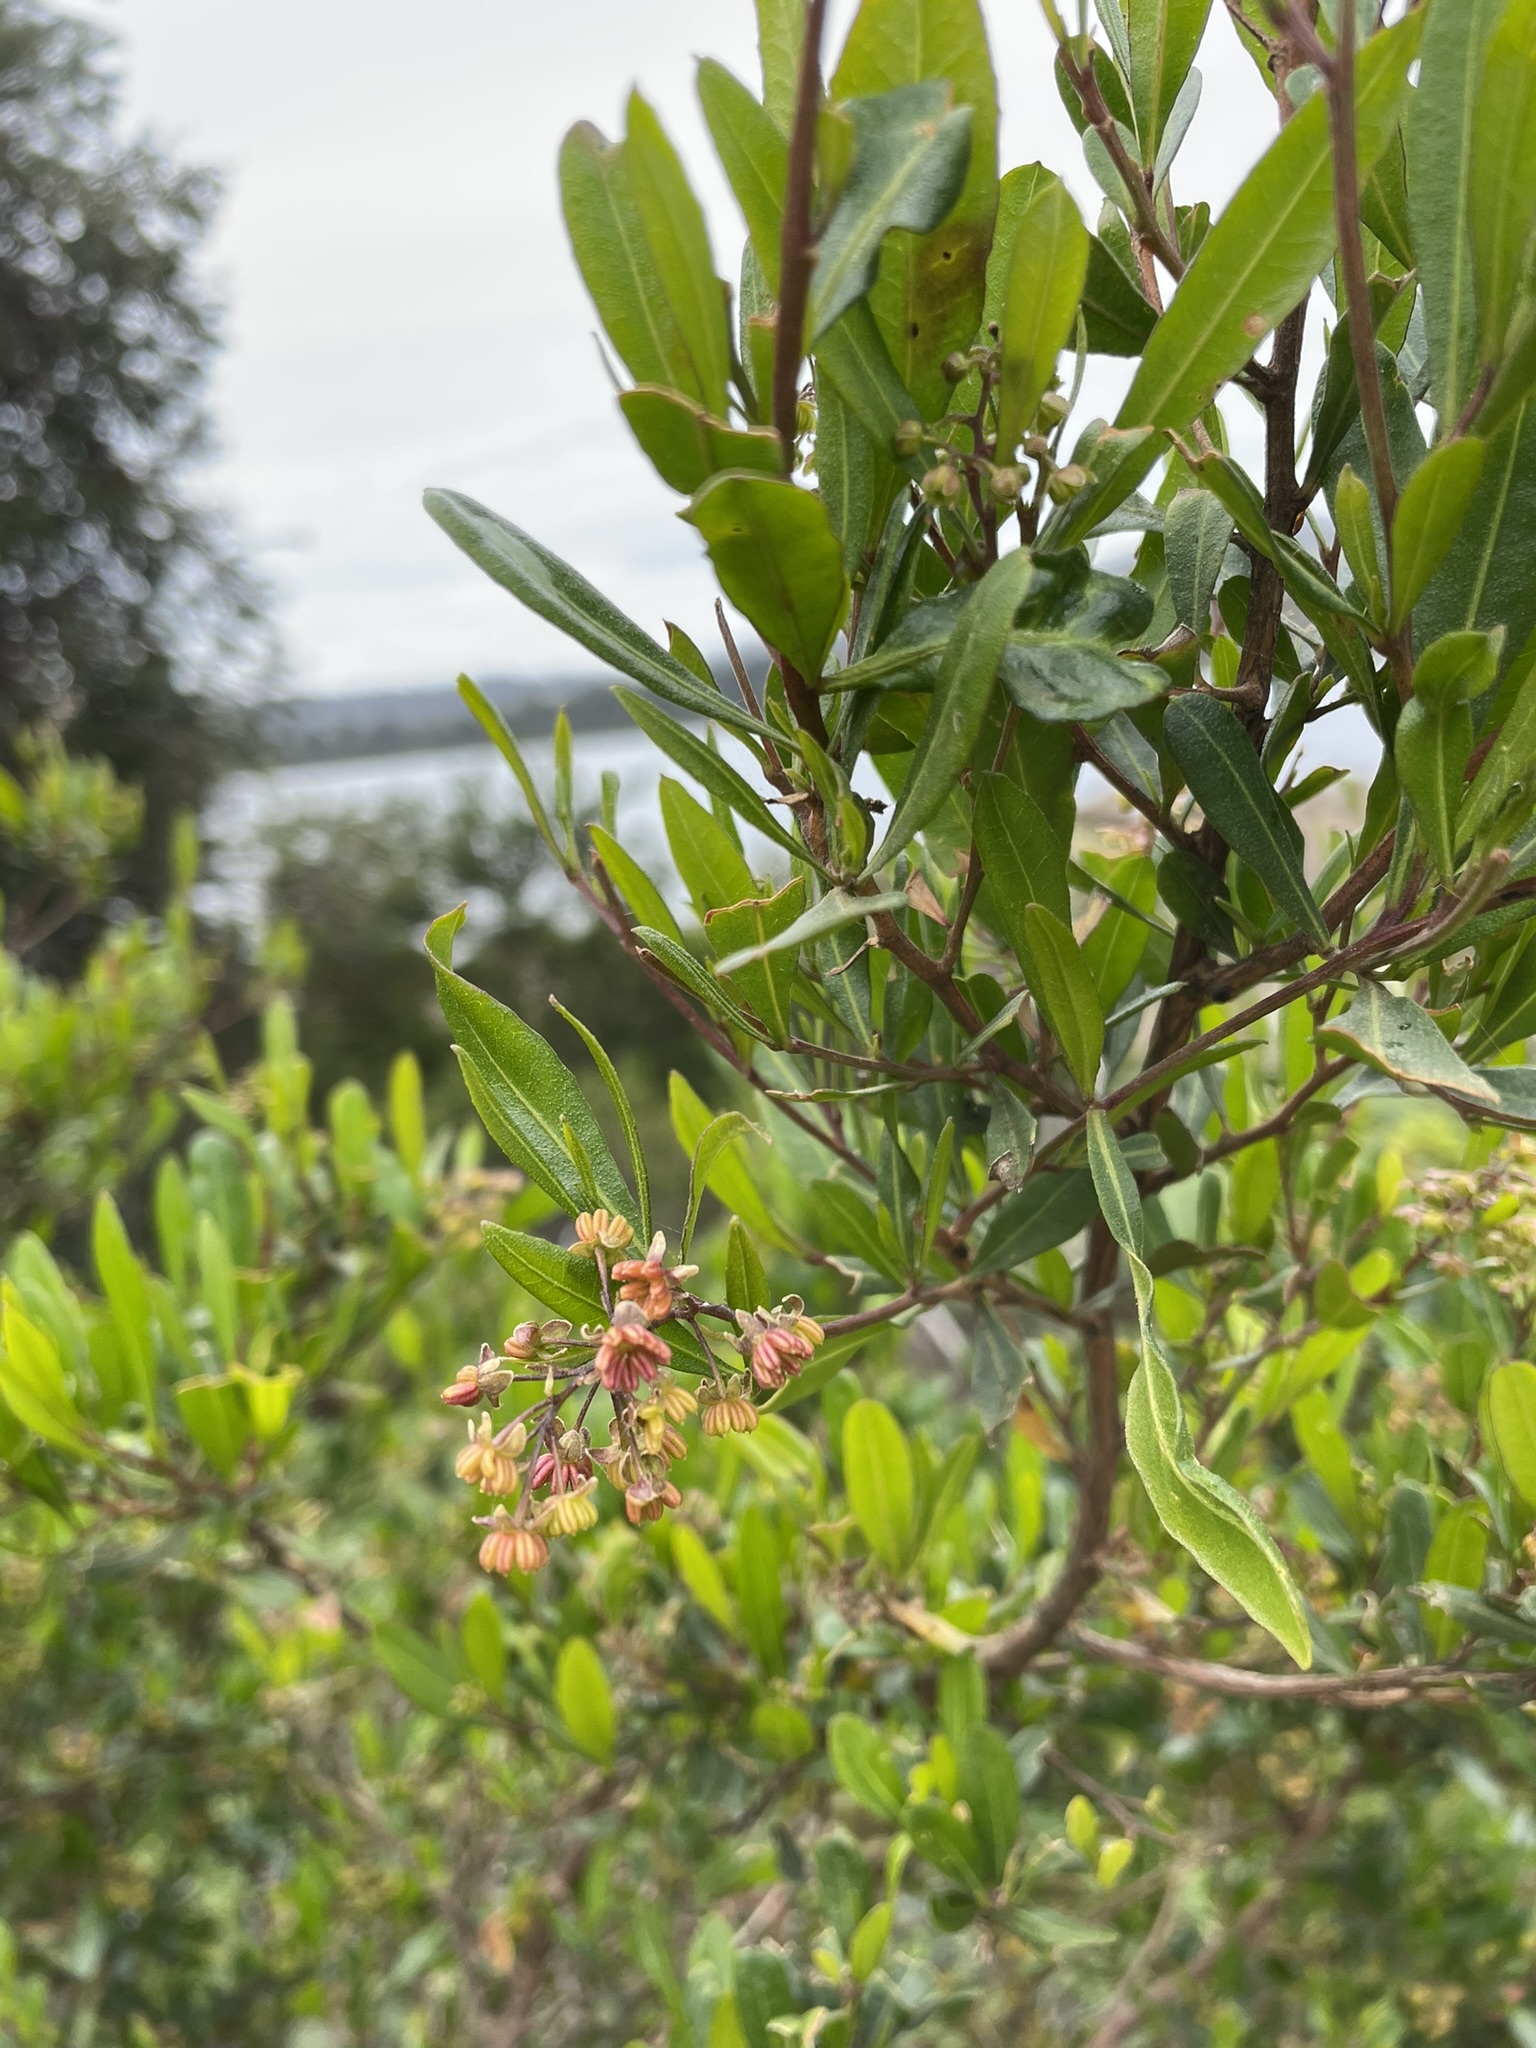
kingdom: Plantae
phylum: Tracheophyta
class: Magnoliopsida
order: Sapindales
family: Sapindaceae
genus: Dodonaea
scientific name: Dodonaea viscosa
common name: Hopbush
